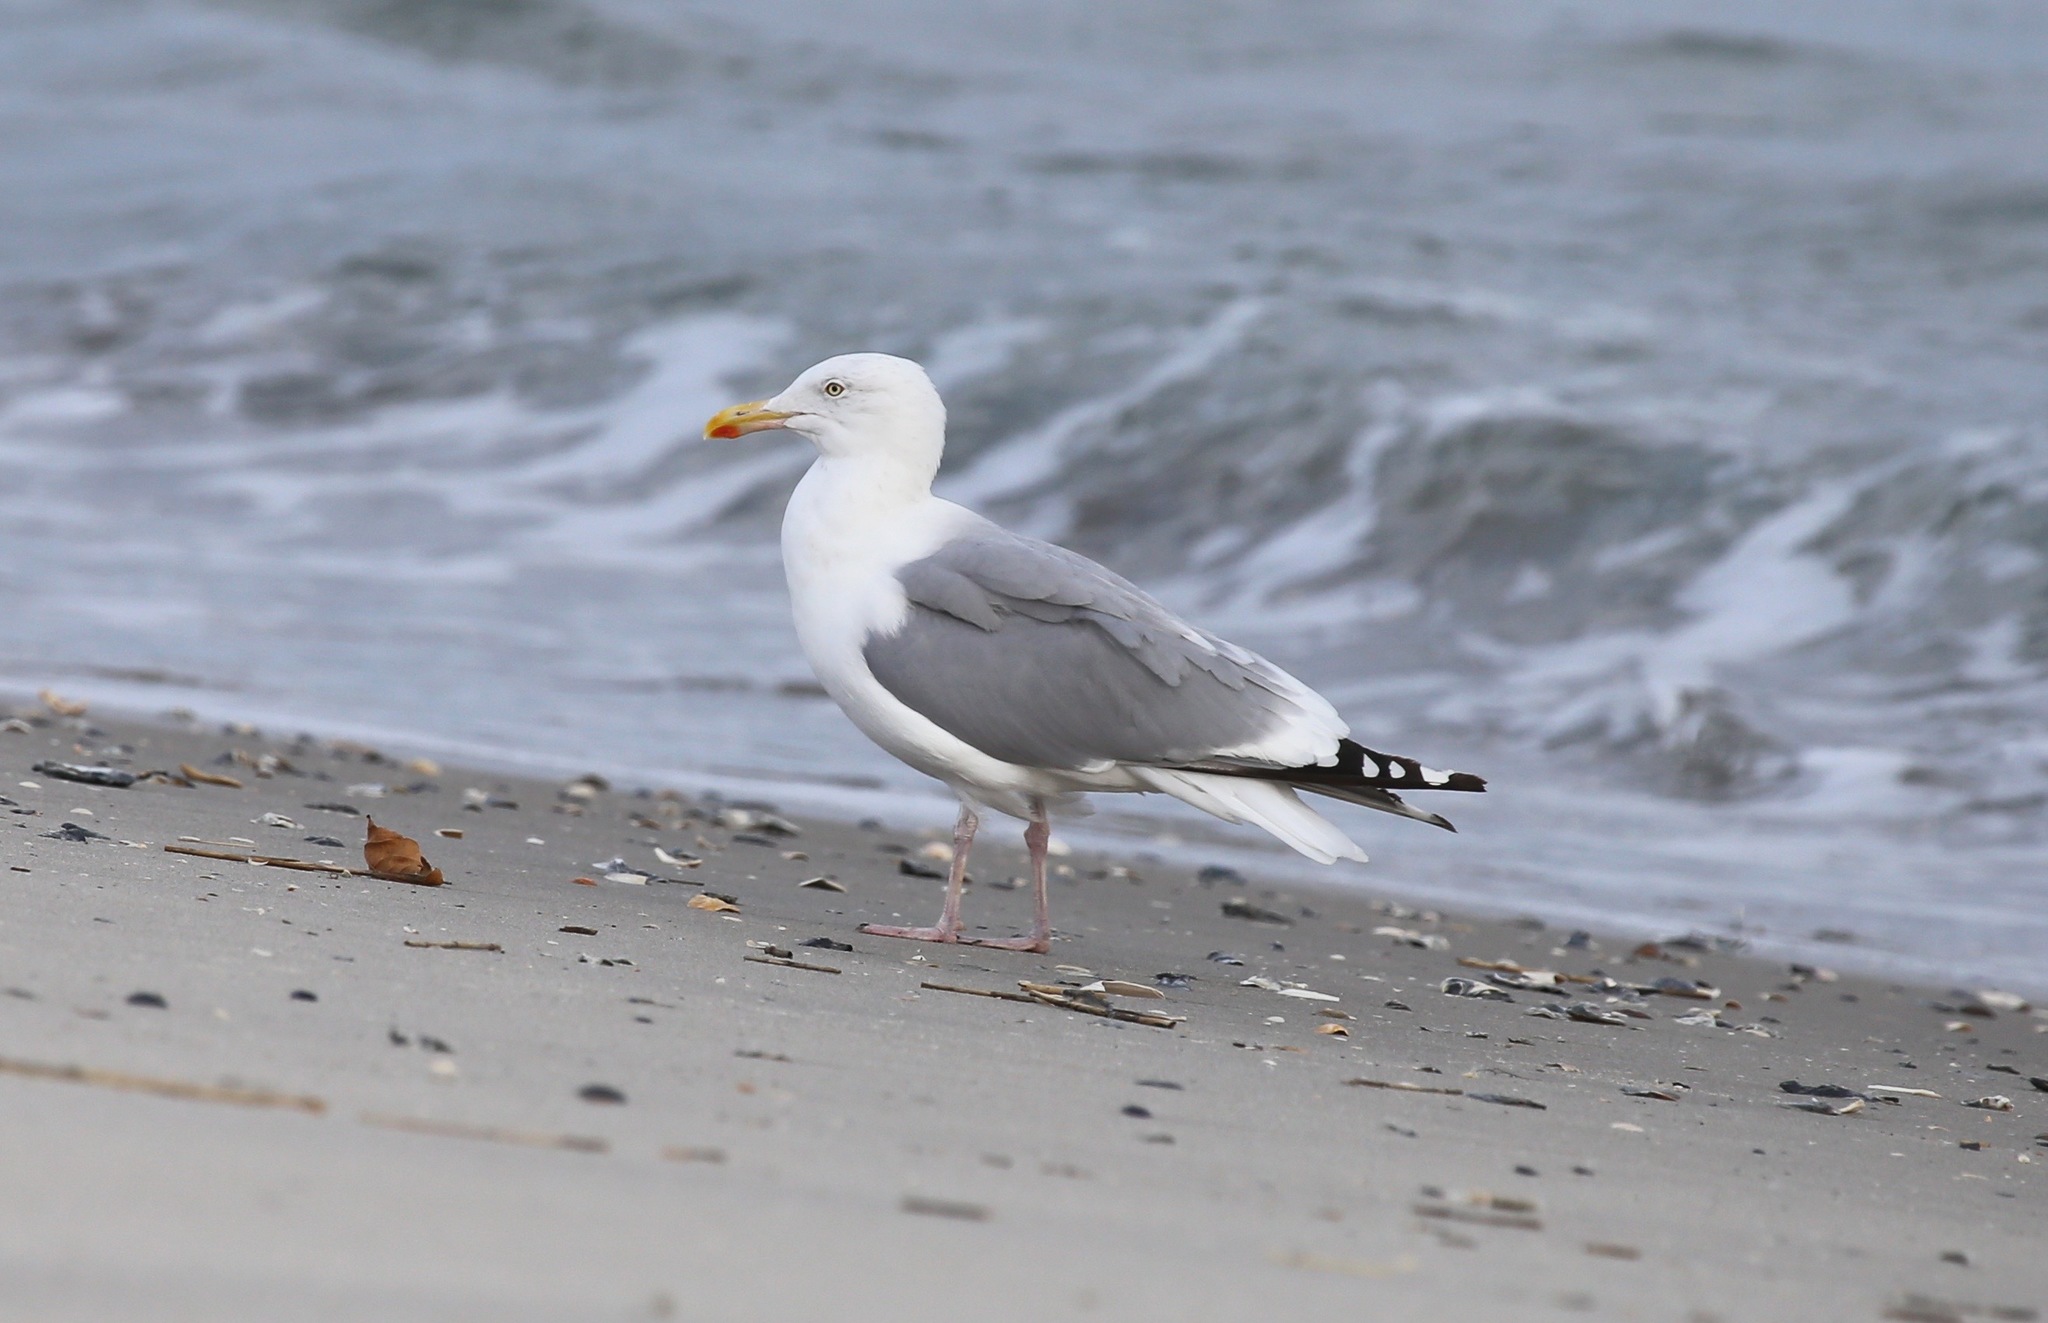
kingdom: Animalia
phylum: Chordata
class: Aves
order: Charadriiformes
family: Laridae
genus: Larus
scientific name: Larus argentatus
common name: Herring gull
